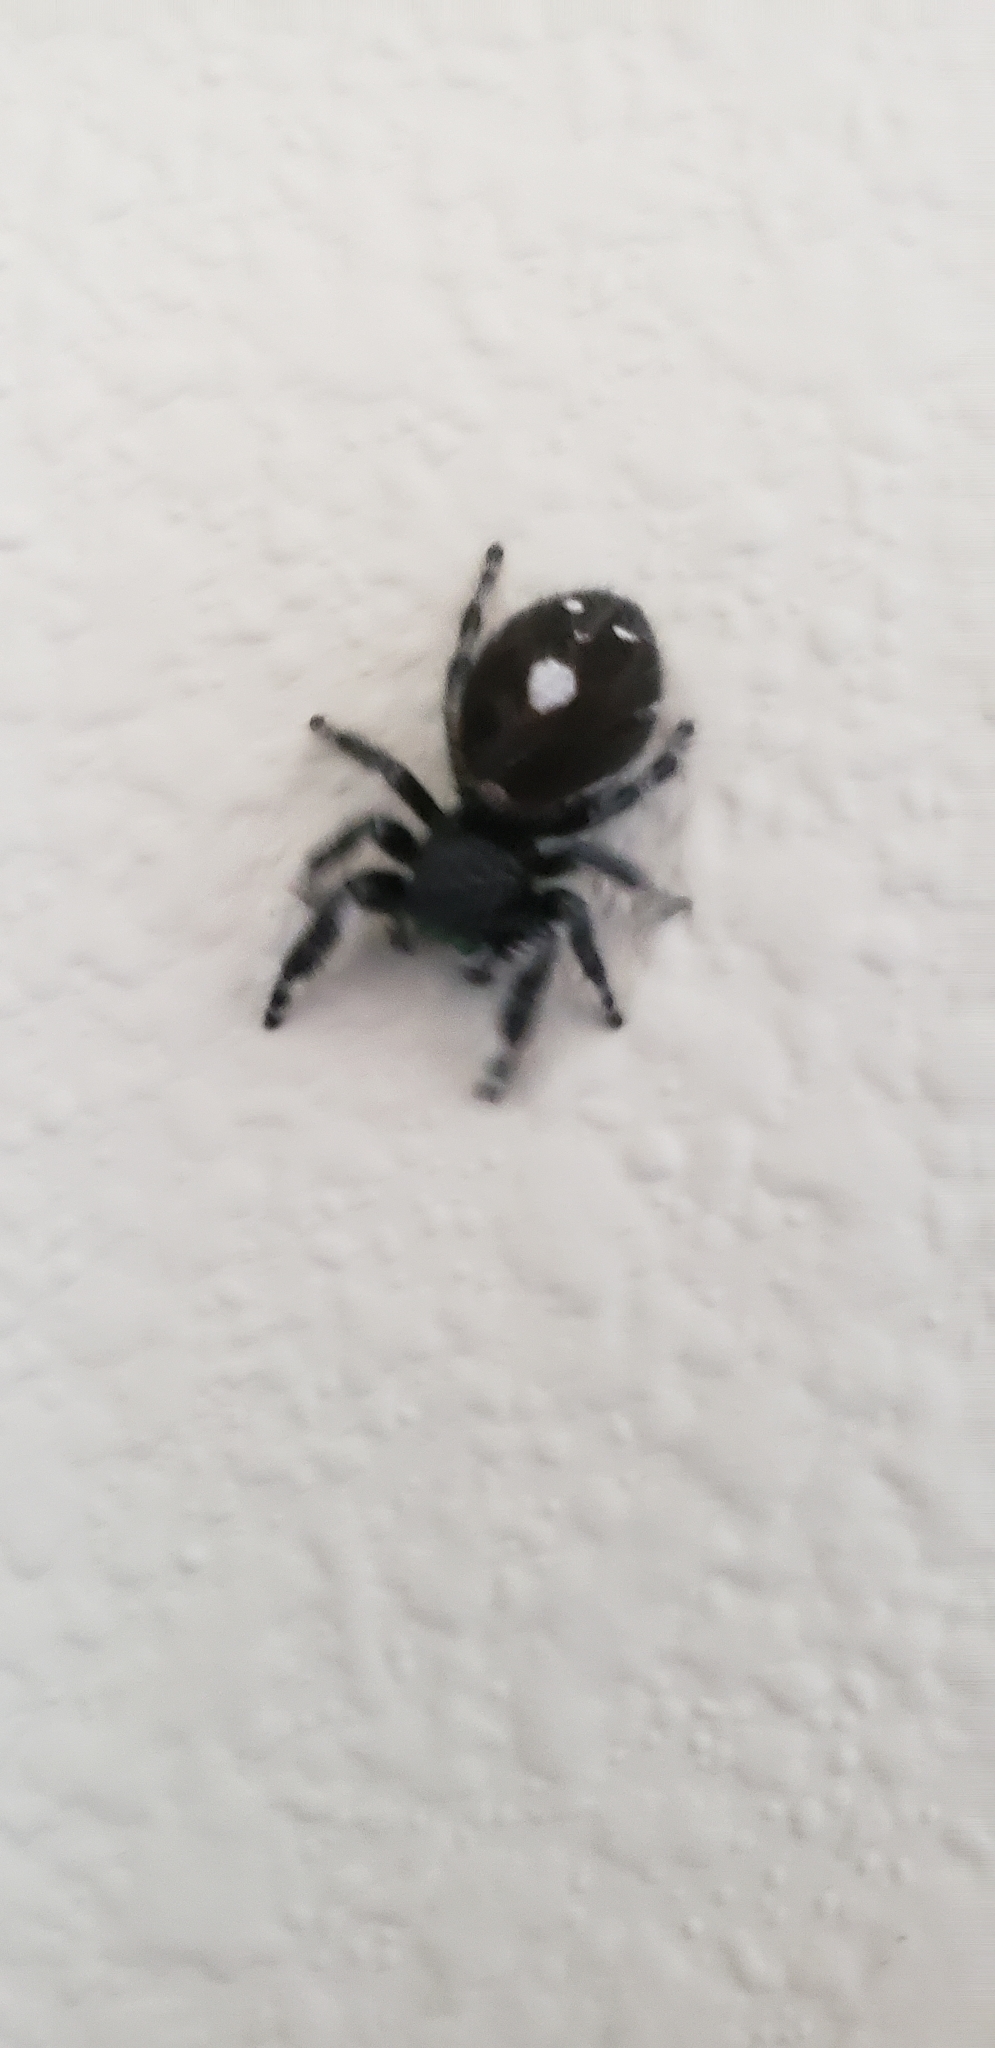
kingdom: Animalia
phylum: Arthropoda
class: Arachnida
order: Araneae
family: Salticidae
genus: Phidippus
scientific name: Phidippus audax
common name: Bold jumper
